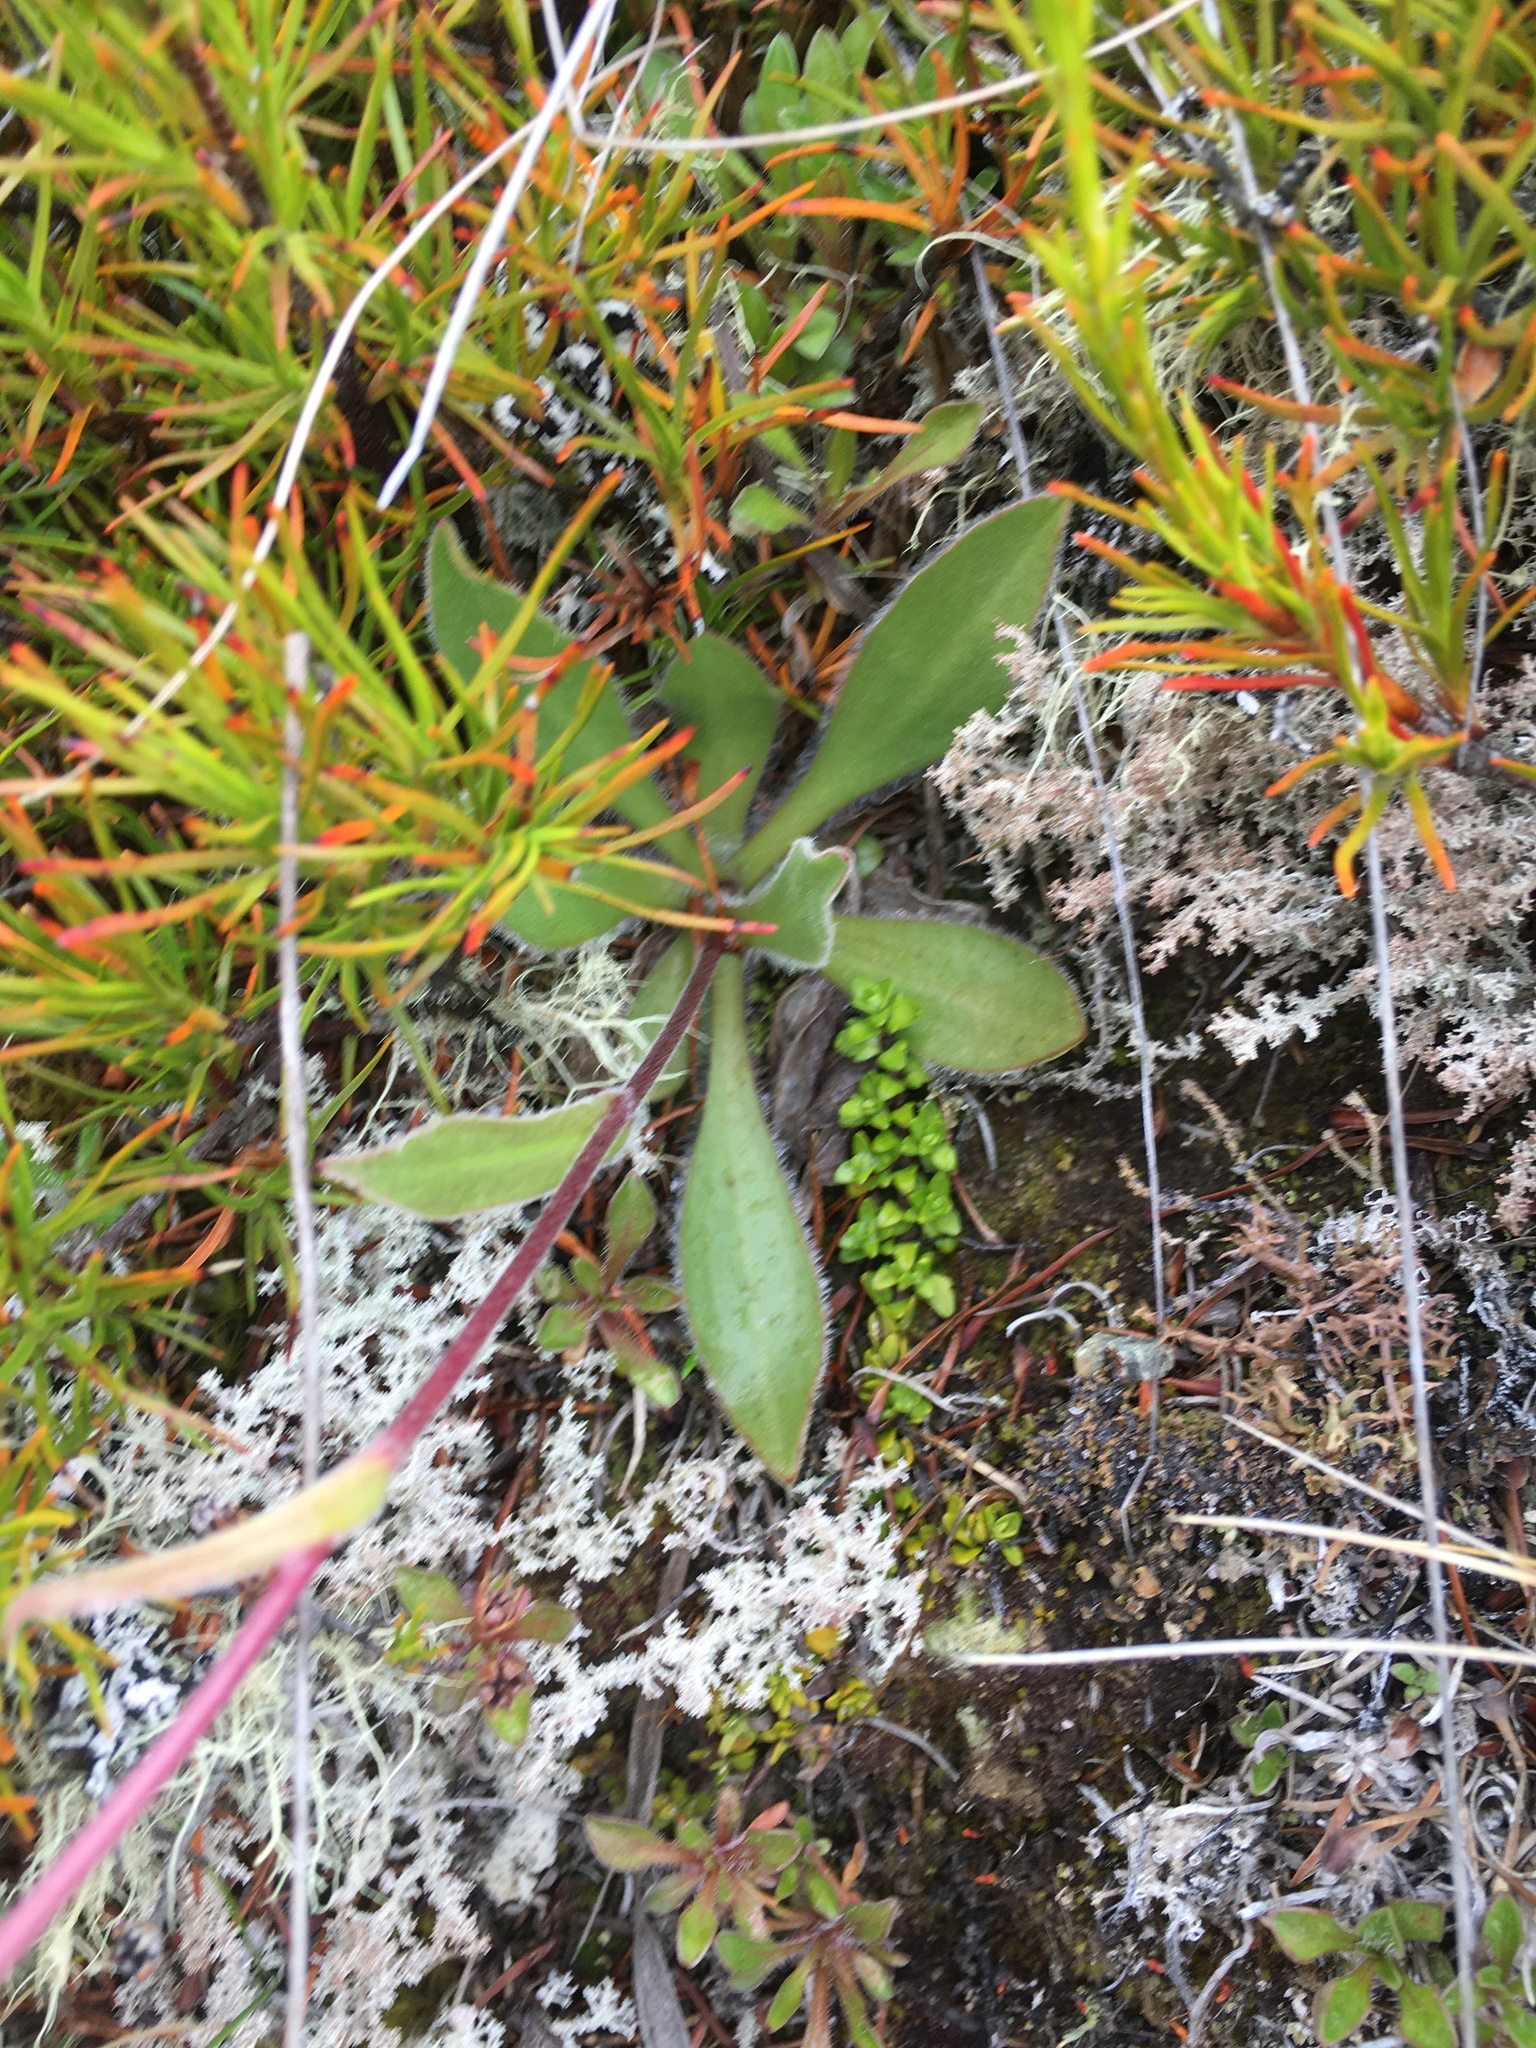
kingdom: Plantae
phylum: Tracheophyta
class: Magnoliopsida
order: Asterales
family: Asteraceae
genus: Craspedia
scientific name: Craspedia uniflora
